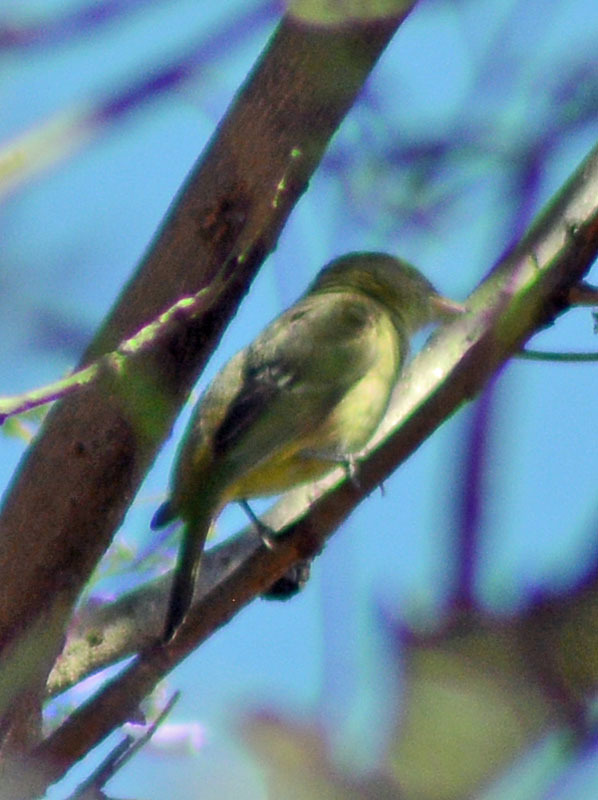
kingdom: Animalia
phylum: Chordata
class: Aves
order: Passeriformes
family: Cardinalidae
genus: Piranga
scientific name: Piranga ludoviciana
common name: Western tanager
